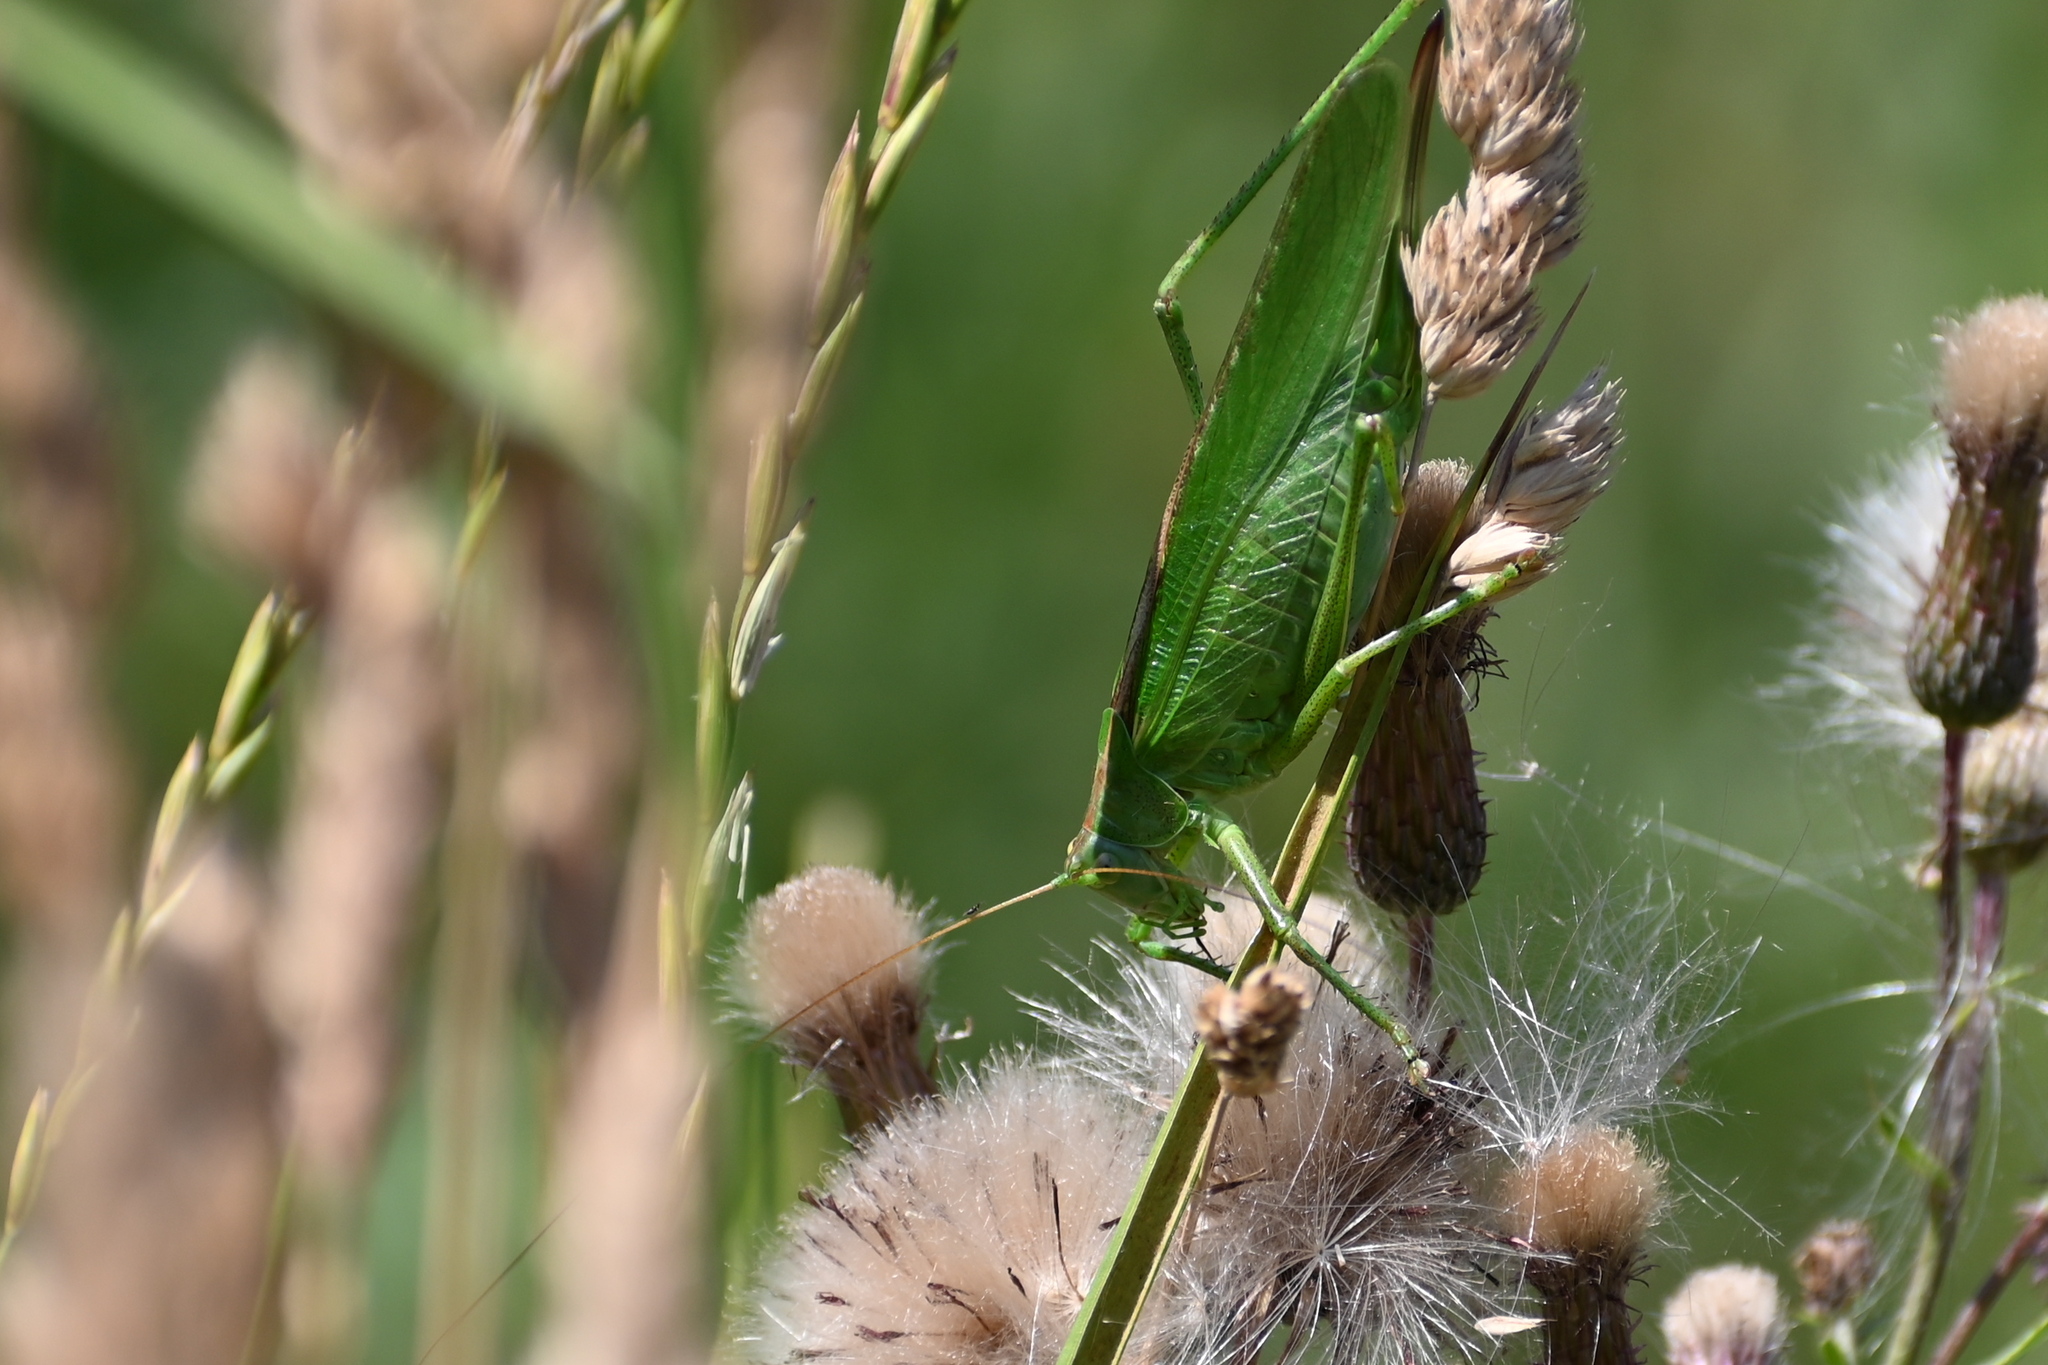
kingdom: Animalia
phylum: Arthropoda
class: Insecta
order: Orthoptera
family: Tettigoniidae
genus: Tettigonia
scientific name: Tettigonia viridissima
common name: Great green bush-cricket
